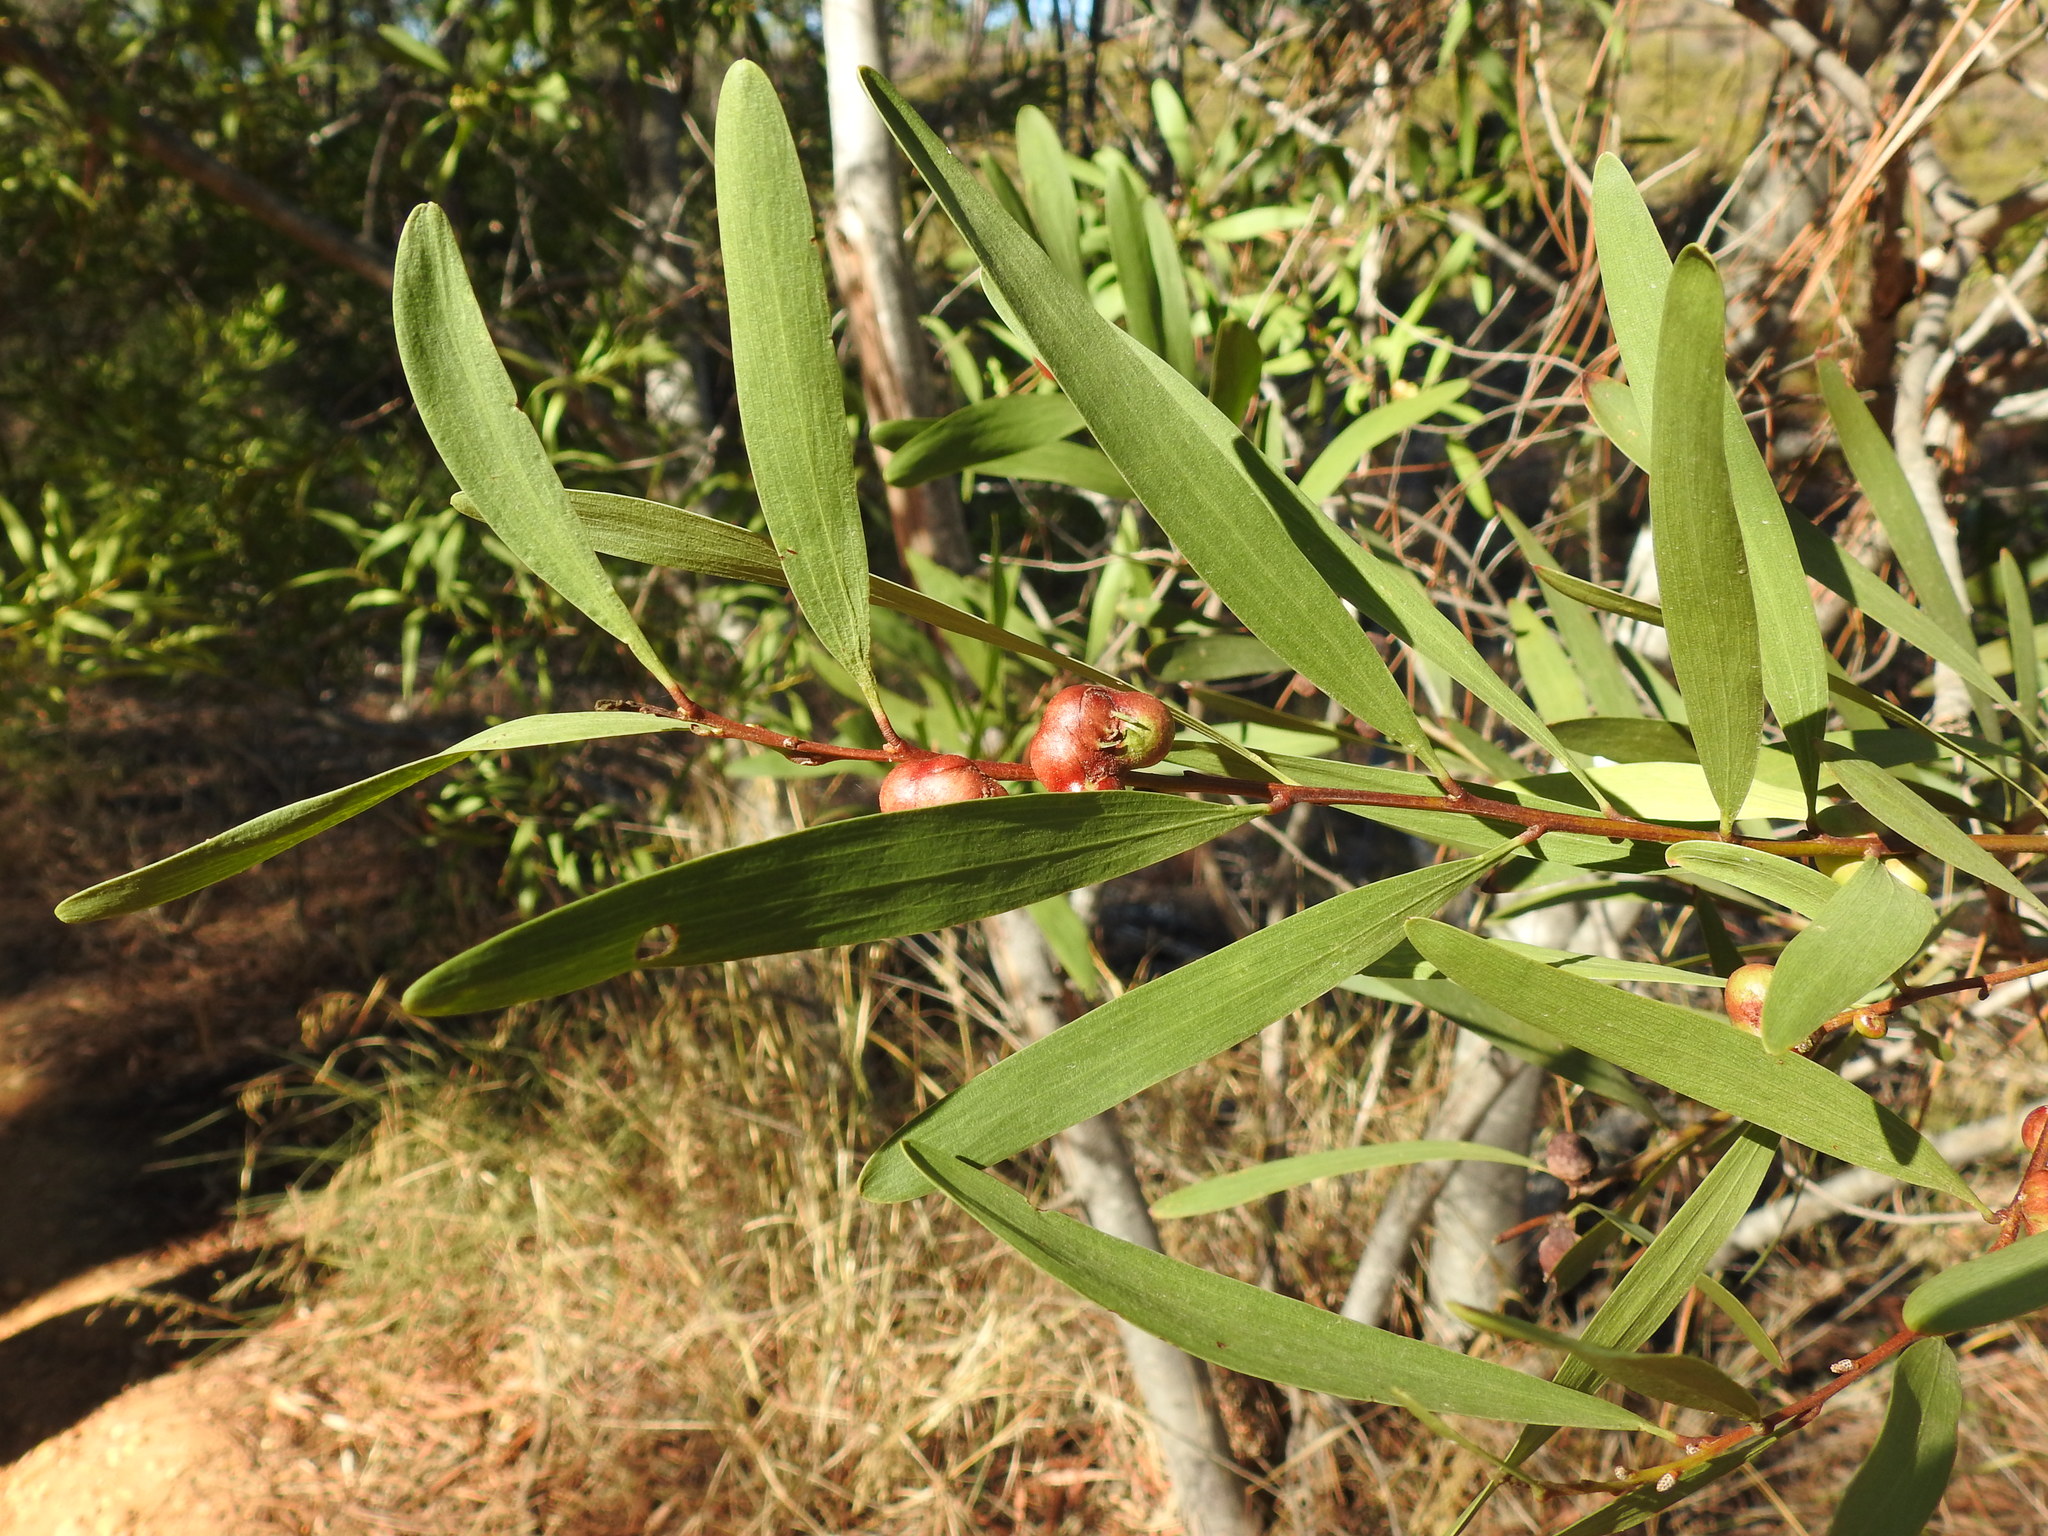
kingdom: Plantae
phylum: Tracheophyta
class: Magnoliopsida
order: Fabales
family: Fabaceae
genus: Acacia
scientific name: Acacia longifolia
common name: Sydney golden wattle
